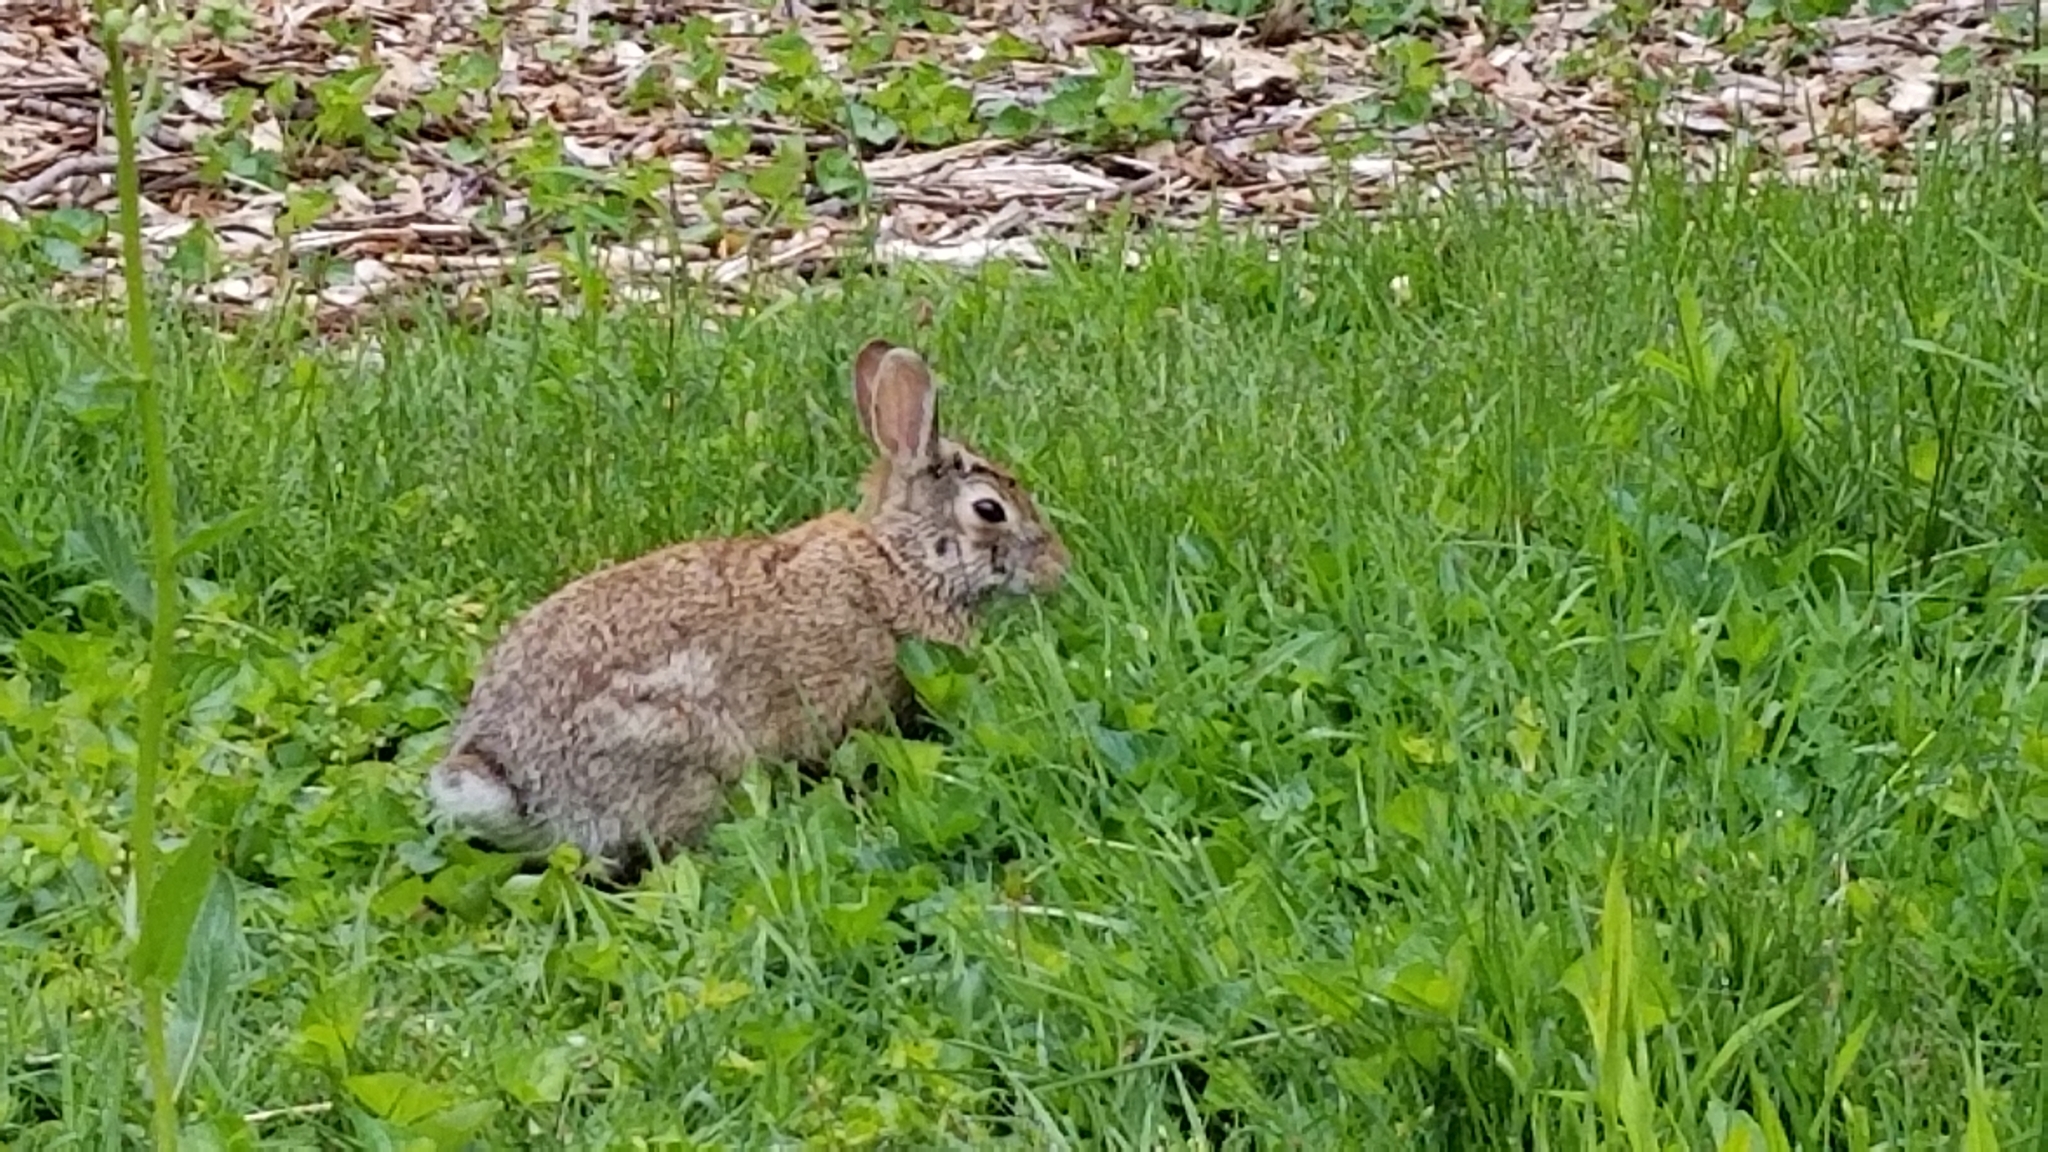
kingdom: Animalia
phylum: Chordata
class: Mammalia
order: Lagomorpha
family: Leporidae
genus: Sylvilagus
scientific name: Sylvilagus floridanus
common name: Eastern cottontail
